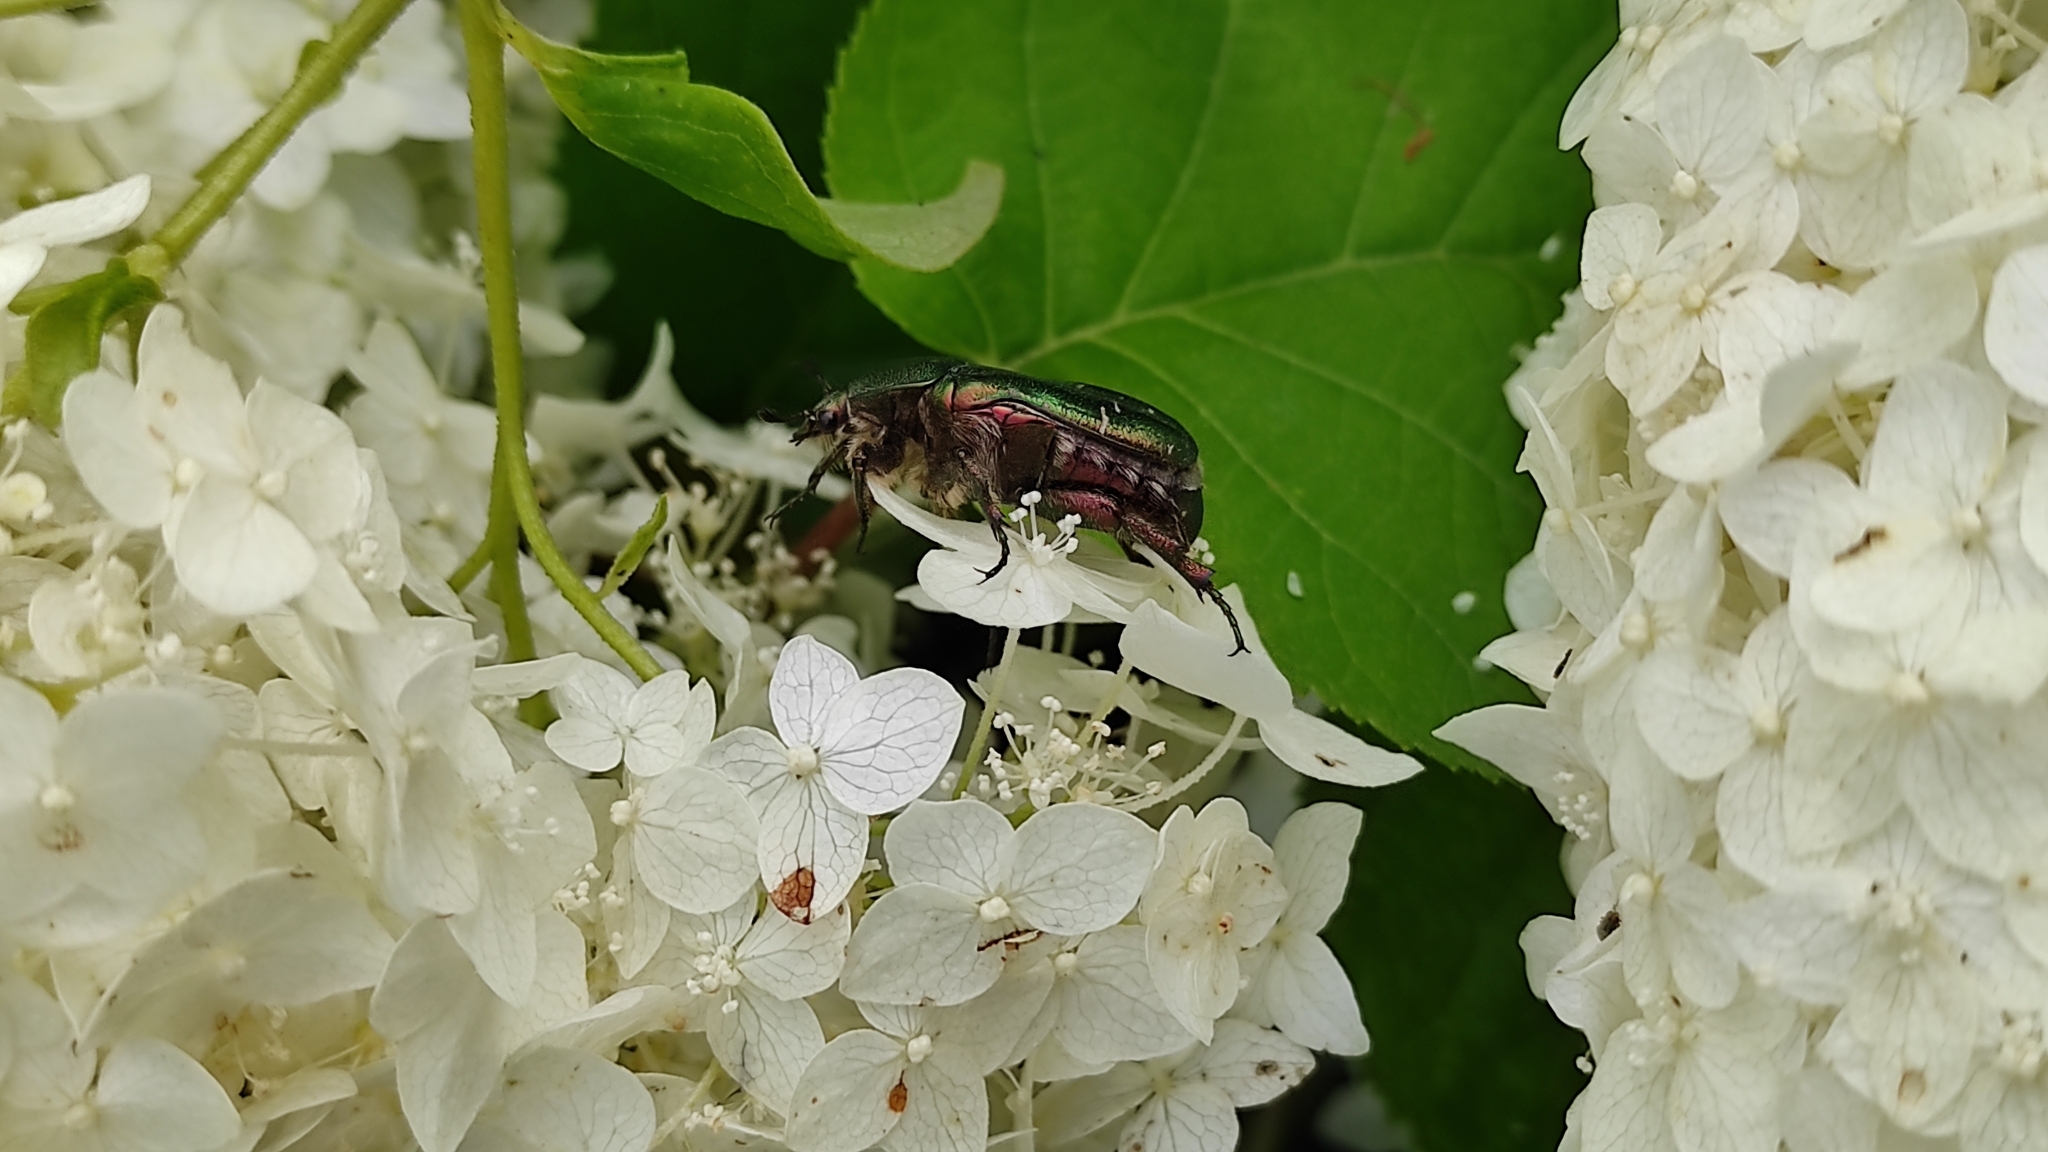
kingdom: Animalia
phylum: Arthropoda
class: Insecta
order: Coleoptera
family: Scarabaeidae
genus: Cetonia
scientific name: Cetonia aurata
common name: Rose chafer
